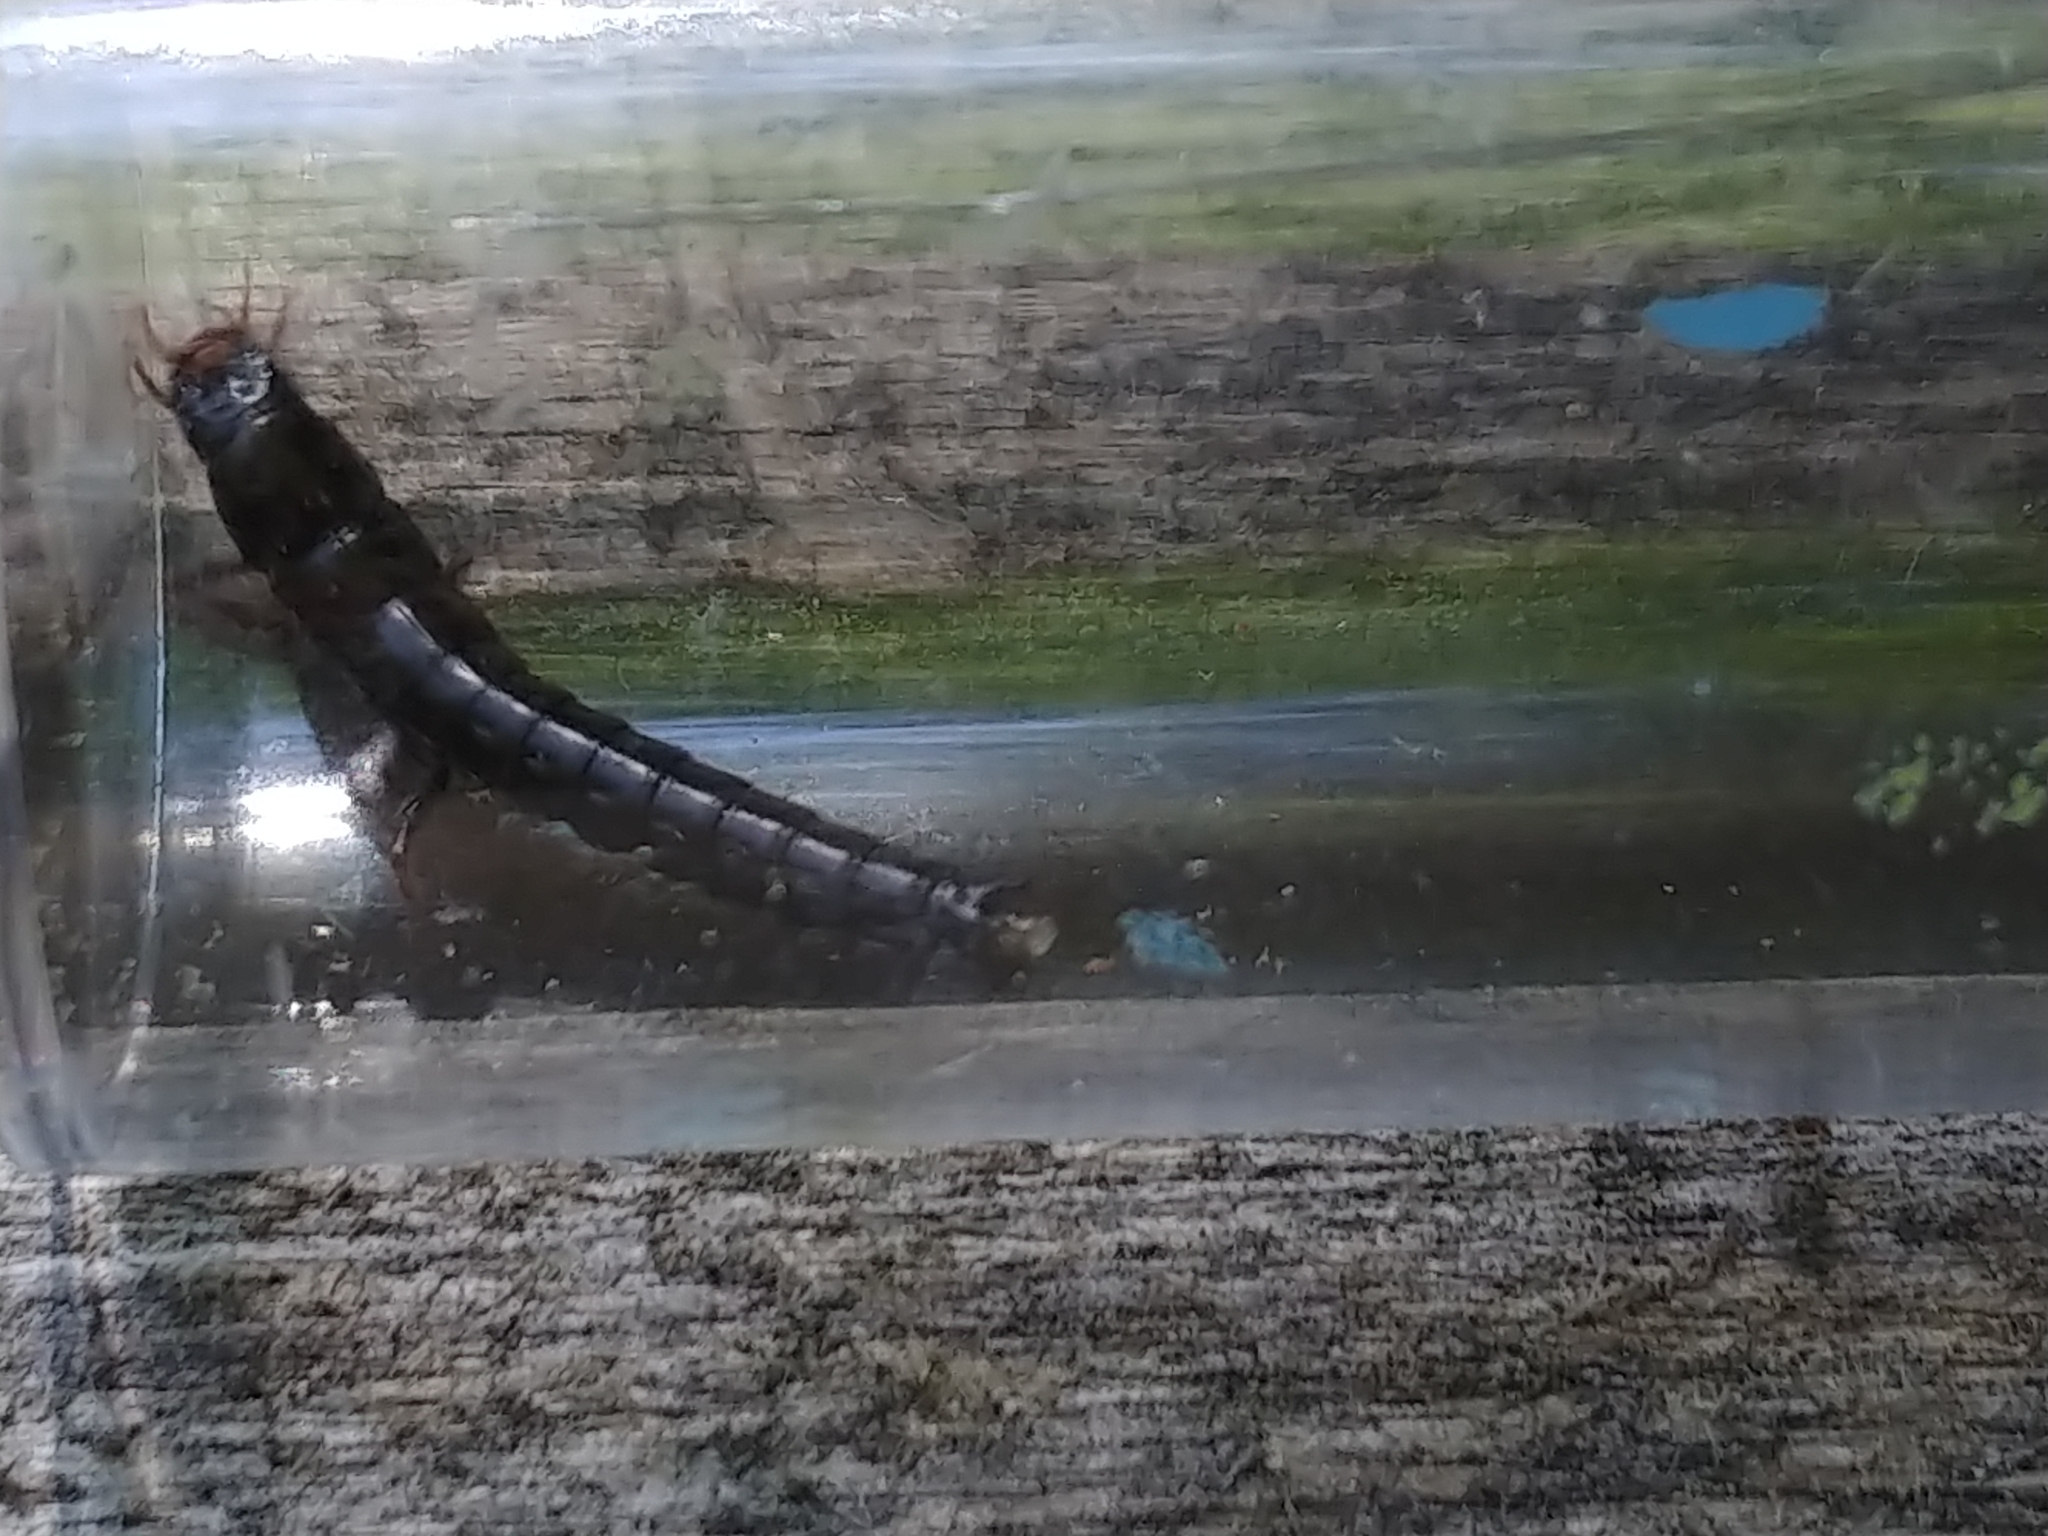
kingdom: Animalia
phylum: Arthropoda
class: Insecta
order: Coleoptera
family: Carabidae
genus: Carabus
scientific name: Carabus
